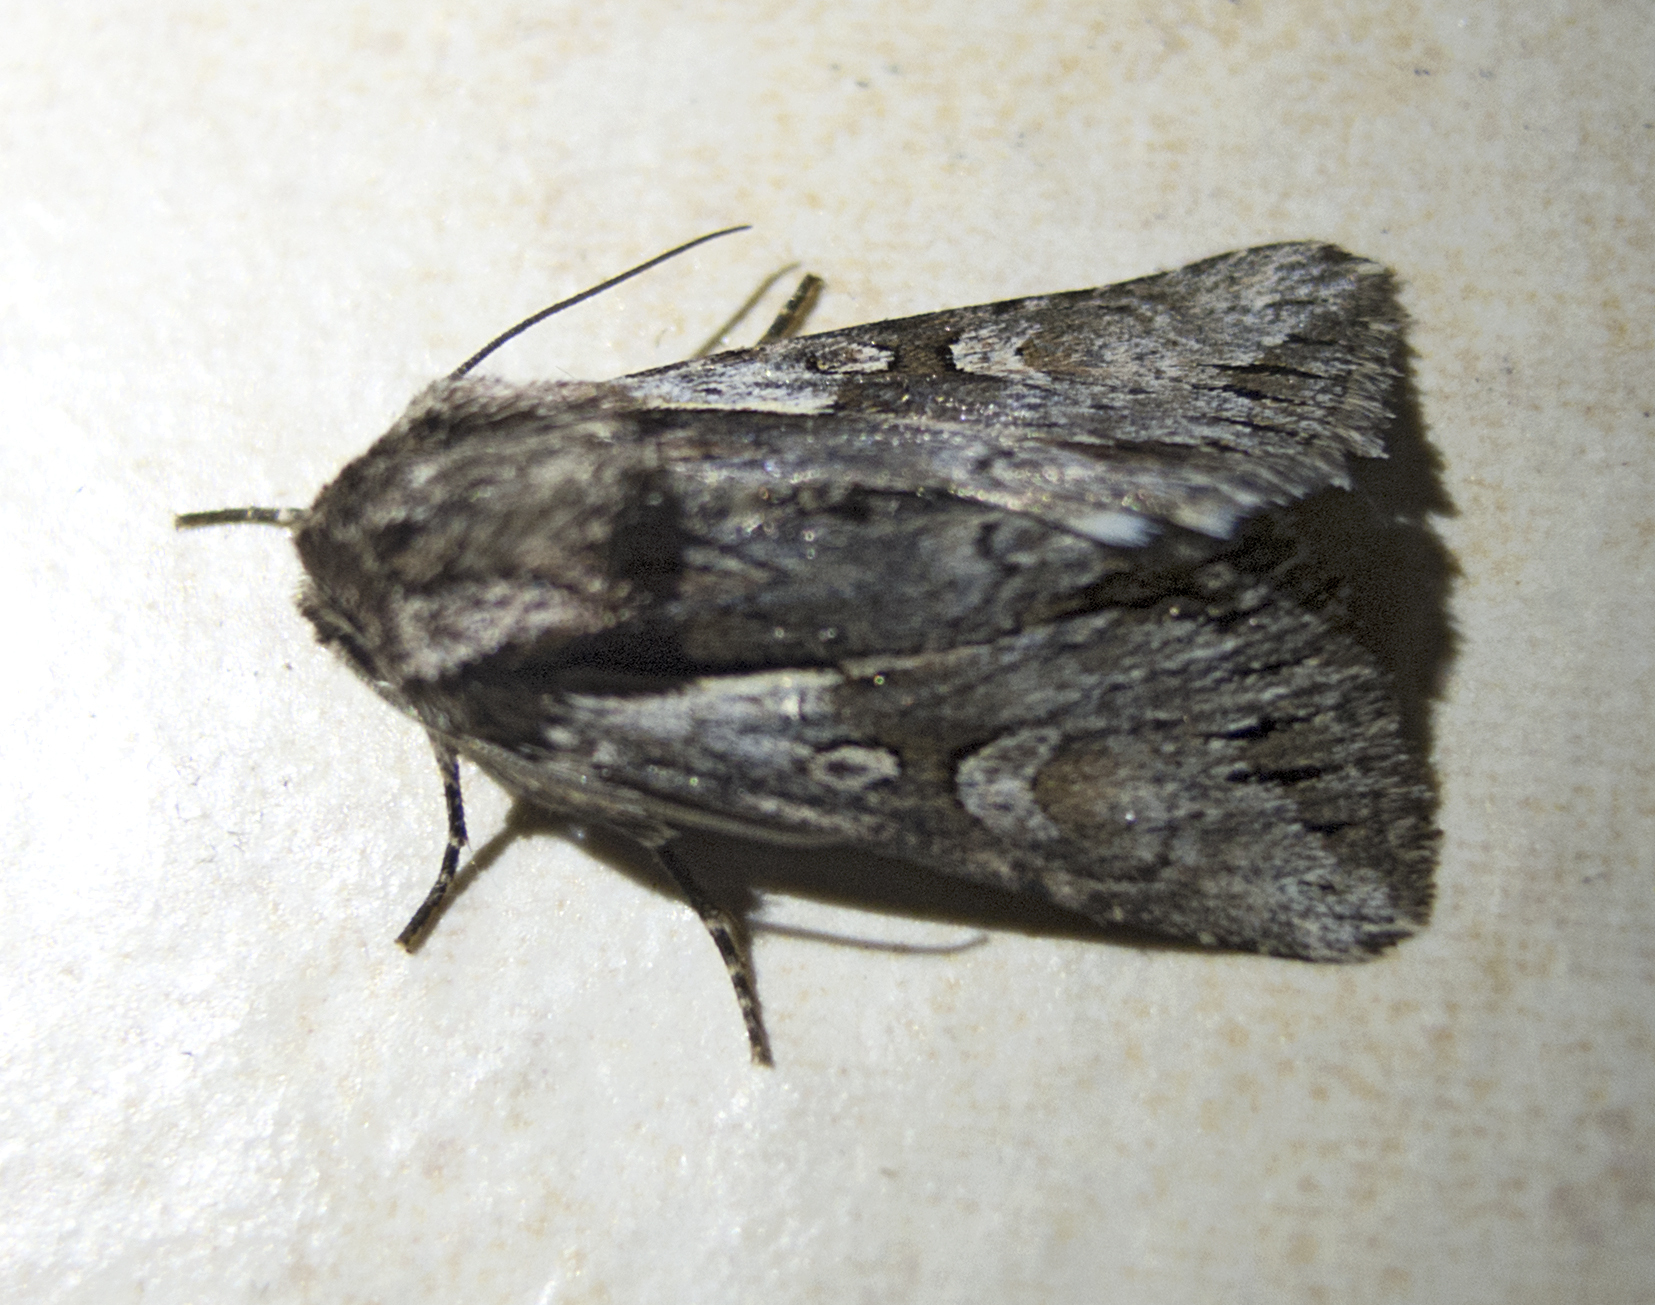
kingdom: Animalia
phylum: Arthropoda
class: Insecta
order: Lepidoptera
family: Noctuidae
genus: Chloantha
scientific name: Chloantha hyperici
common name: Pale-shouldered cloud
